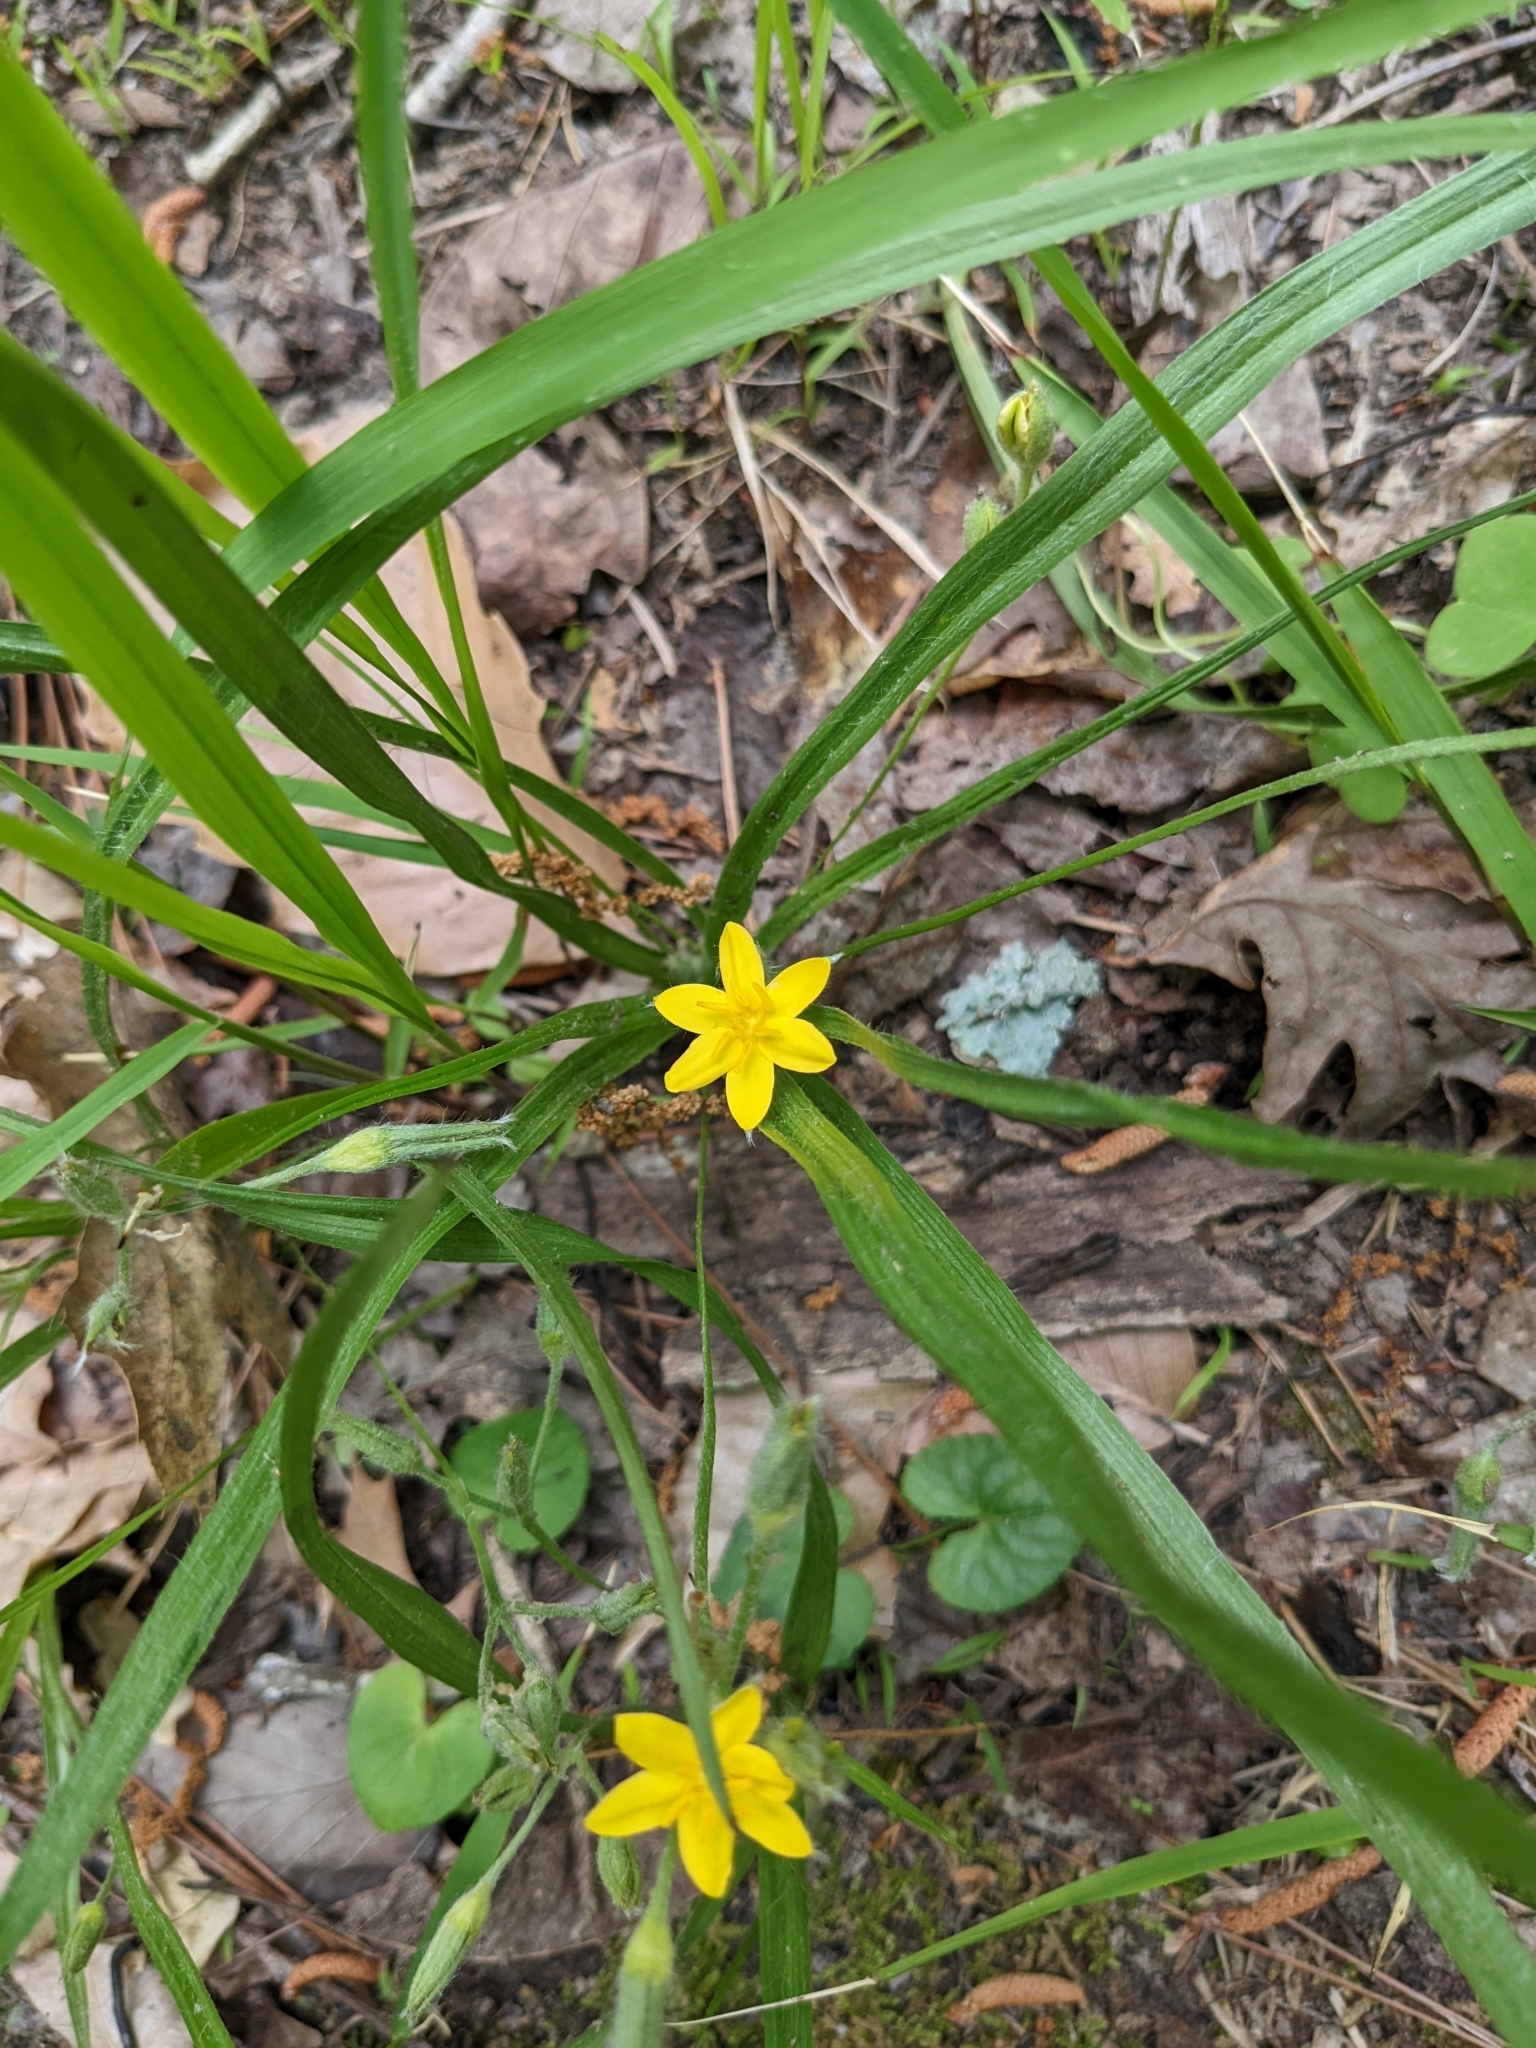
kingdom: Plantae
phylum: Tracheophyta
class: Liliopsida
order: Asparagales
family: Hypoxidaceae
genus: Hypoxis
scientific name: Hypoxis hirsuta
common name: Common goldstar
